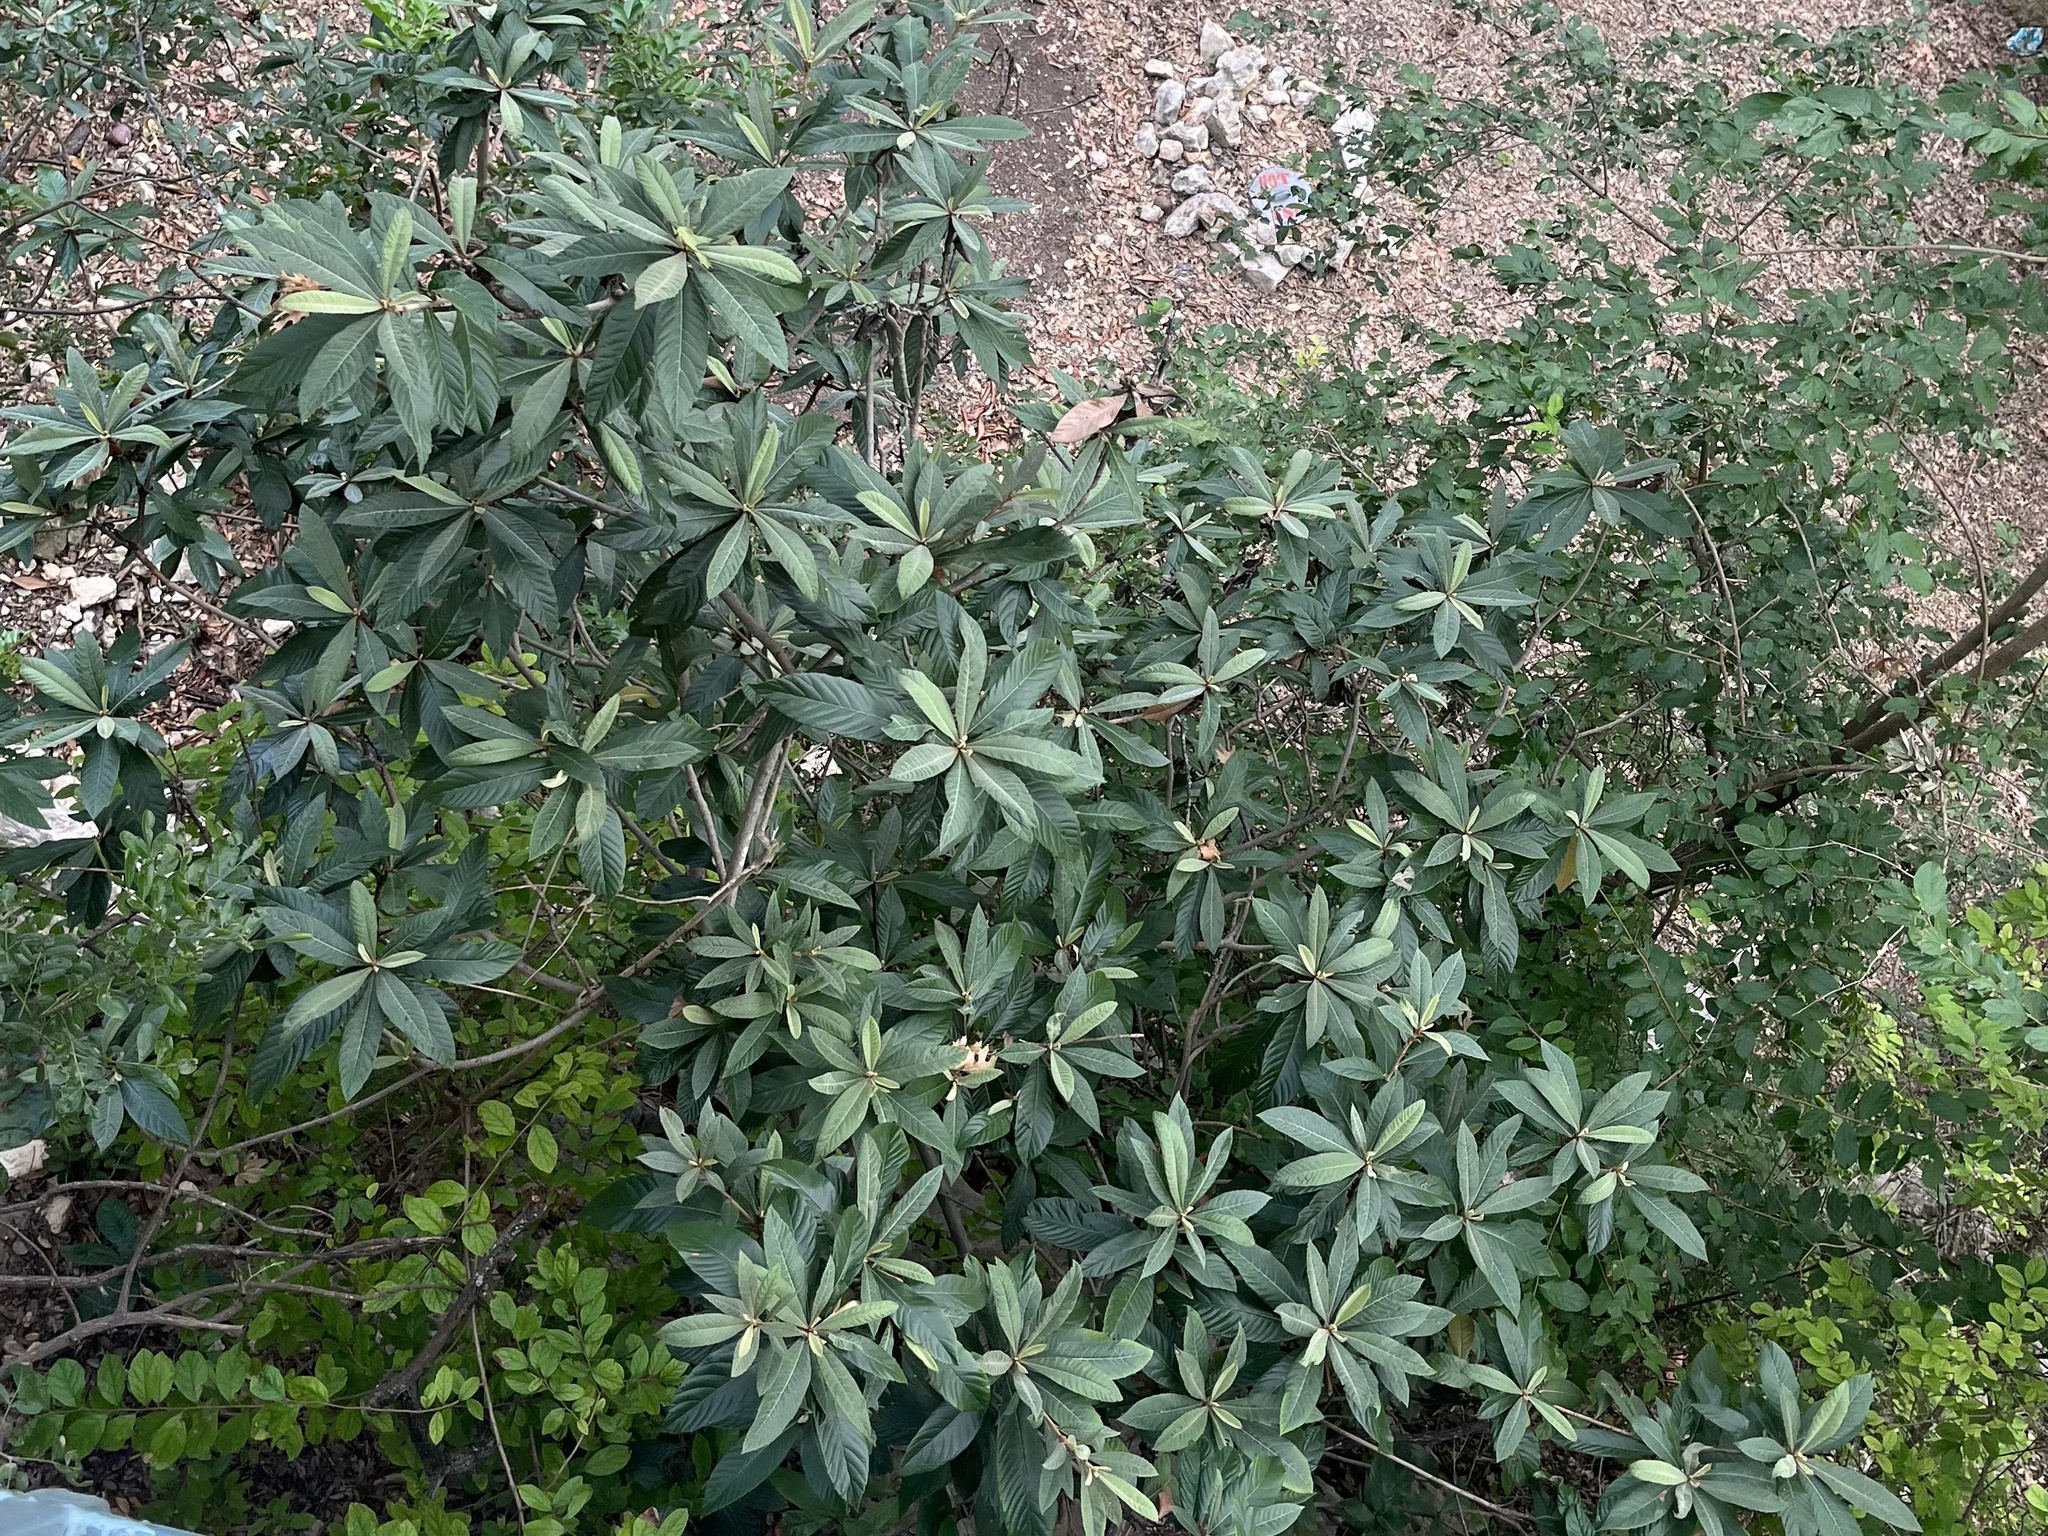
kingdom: Plantae
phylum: Tracheophyta
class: Magnoliopsida
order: Rosales
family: Rosaceae
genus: Rhaphiolepis
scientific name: Rhaphiolepis bibas
